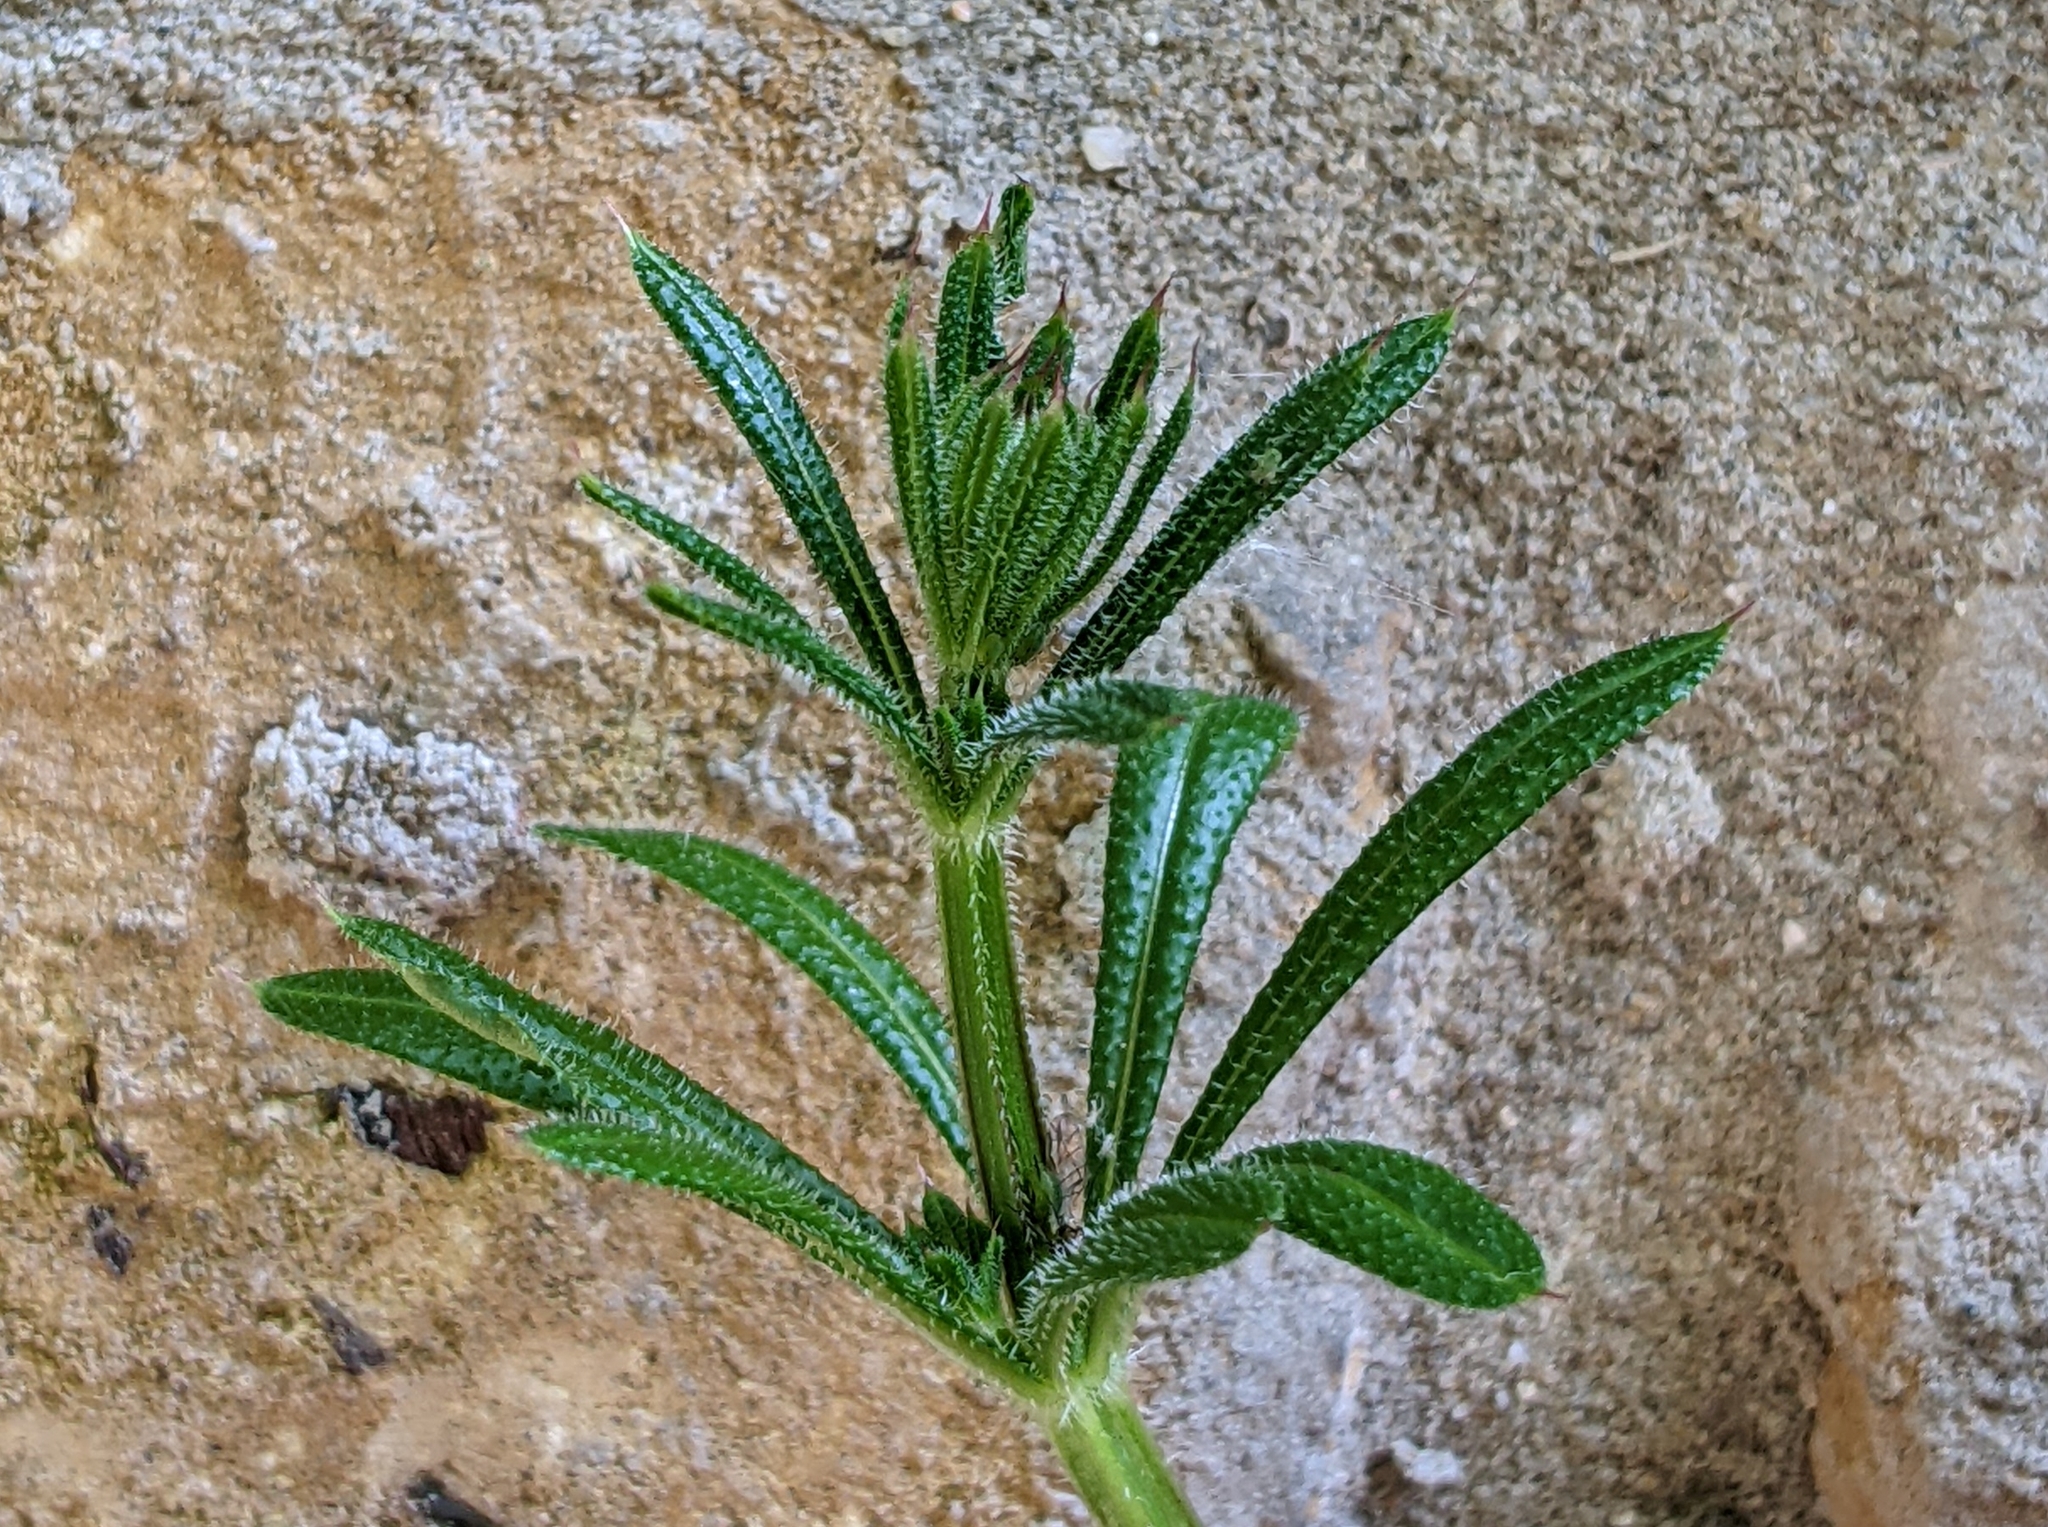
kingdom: Plantae
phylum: Tracheophyta
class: Magnoliopsida
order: Gentianales
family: Rubiaceae
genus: Galium
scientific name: Galium aparine
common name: Cleavers
